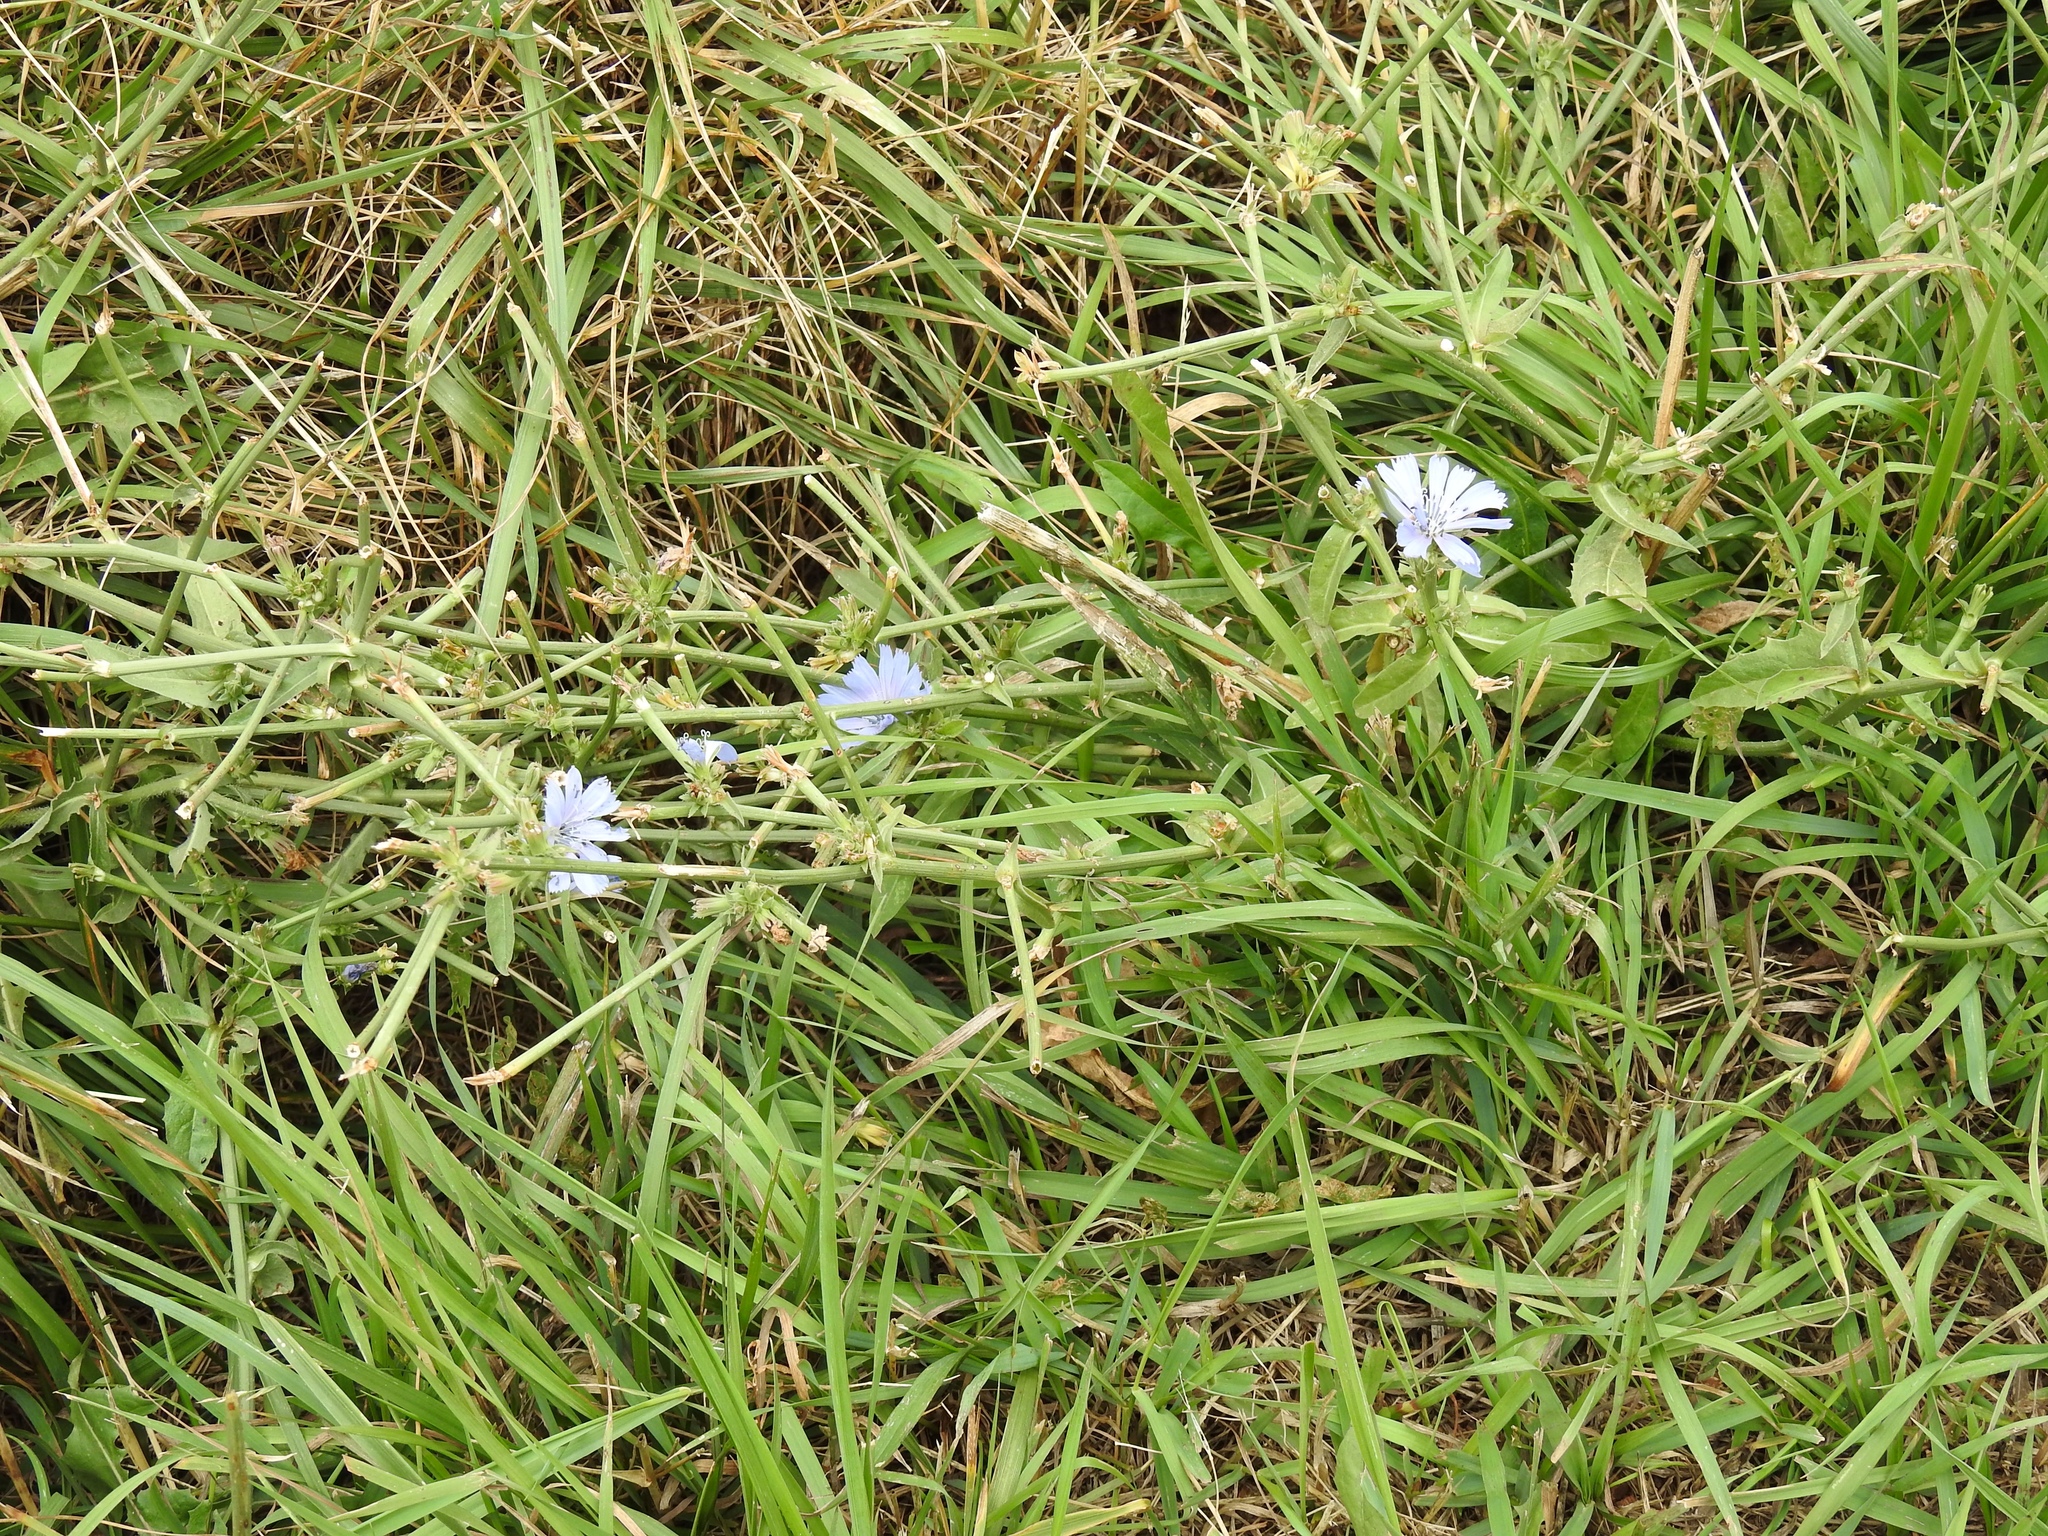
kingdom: Plantae
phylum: Tracheophyta
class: Magnoliopsida
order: Asterales
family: Asteraceae
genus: Cichorium
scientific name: Cichorium intybus
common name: Chicory
